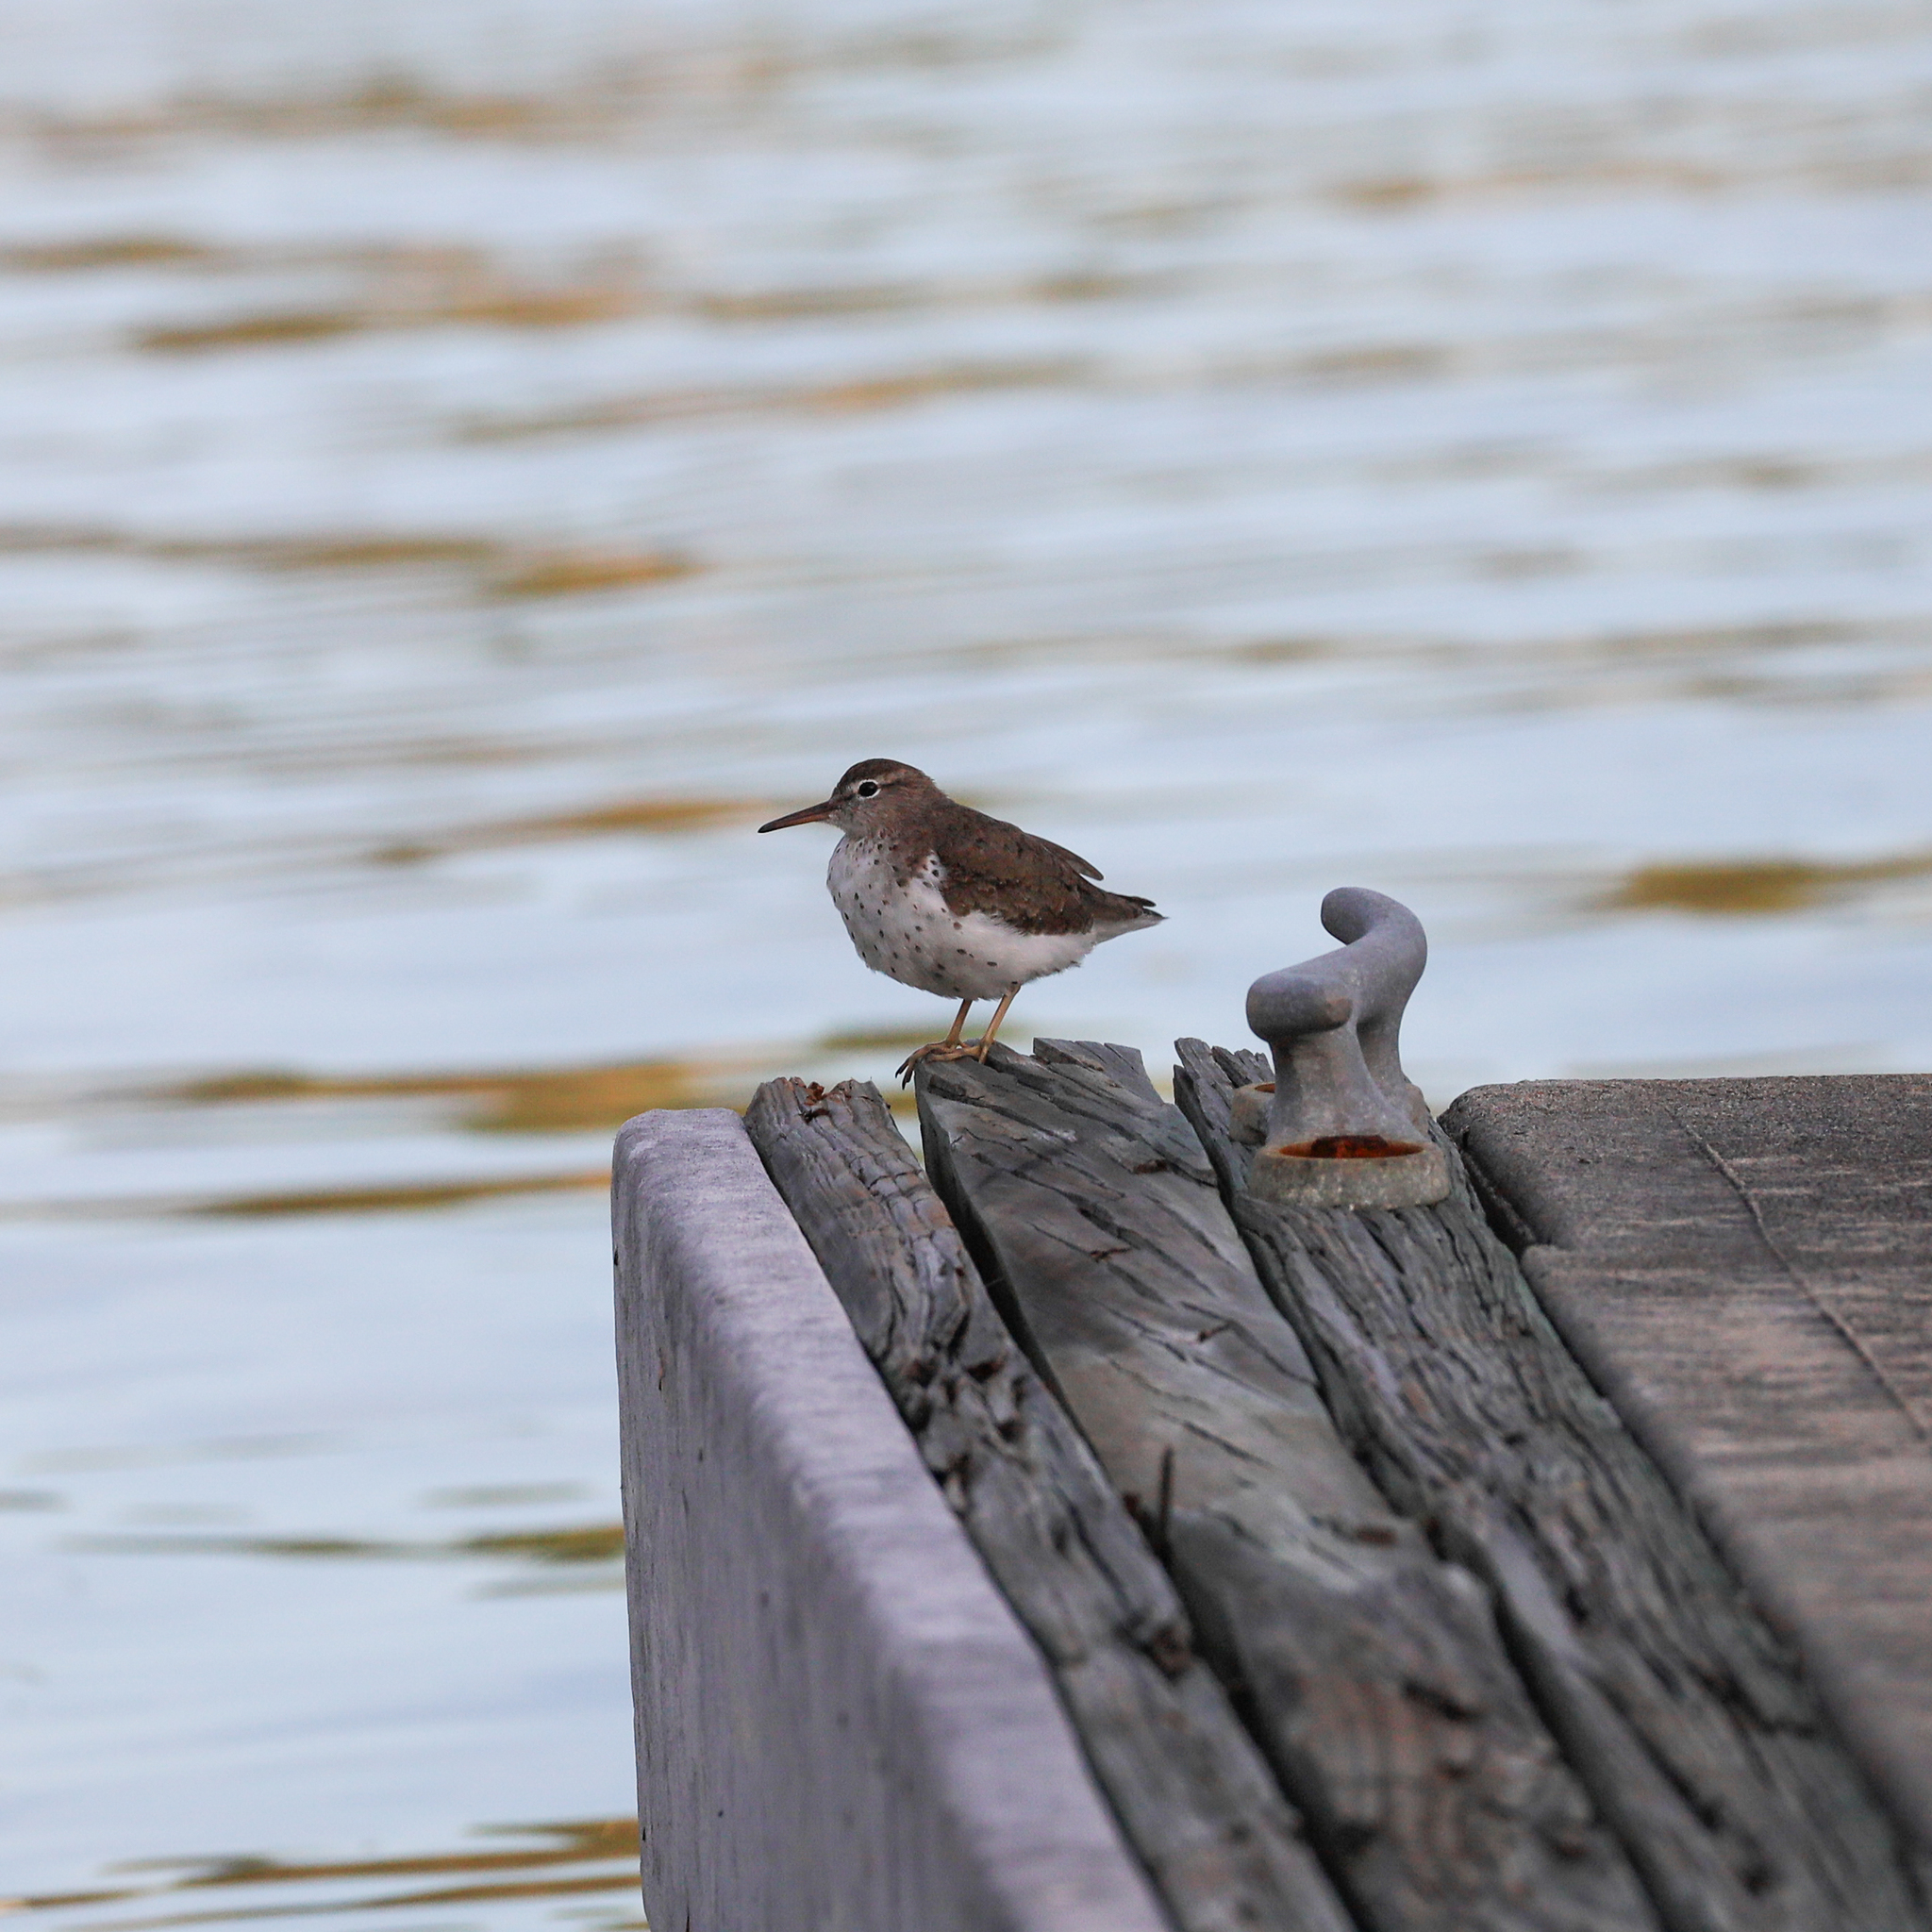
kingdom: Animalia
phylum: Chordata
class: Aves
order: Charadriiformes
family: Scolopacidae
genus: Actitis
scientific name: Actitis macularius
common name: Spotted sandpiper
